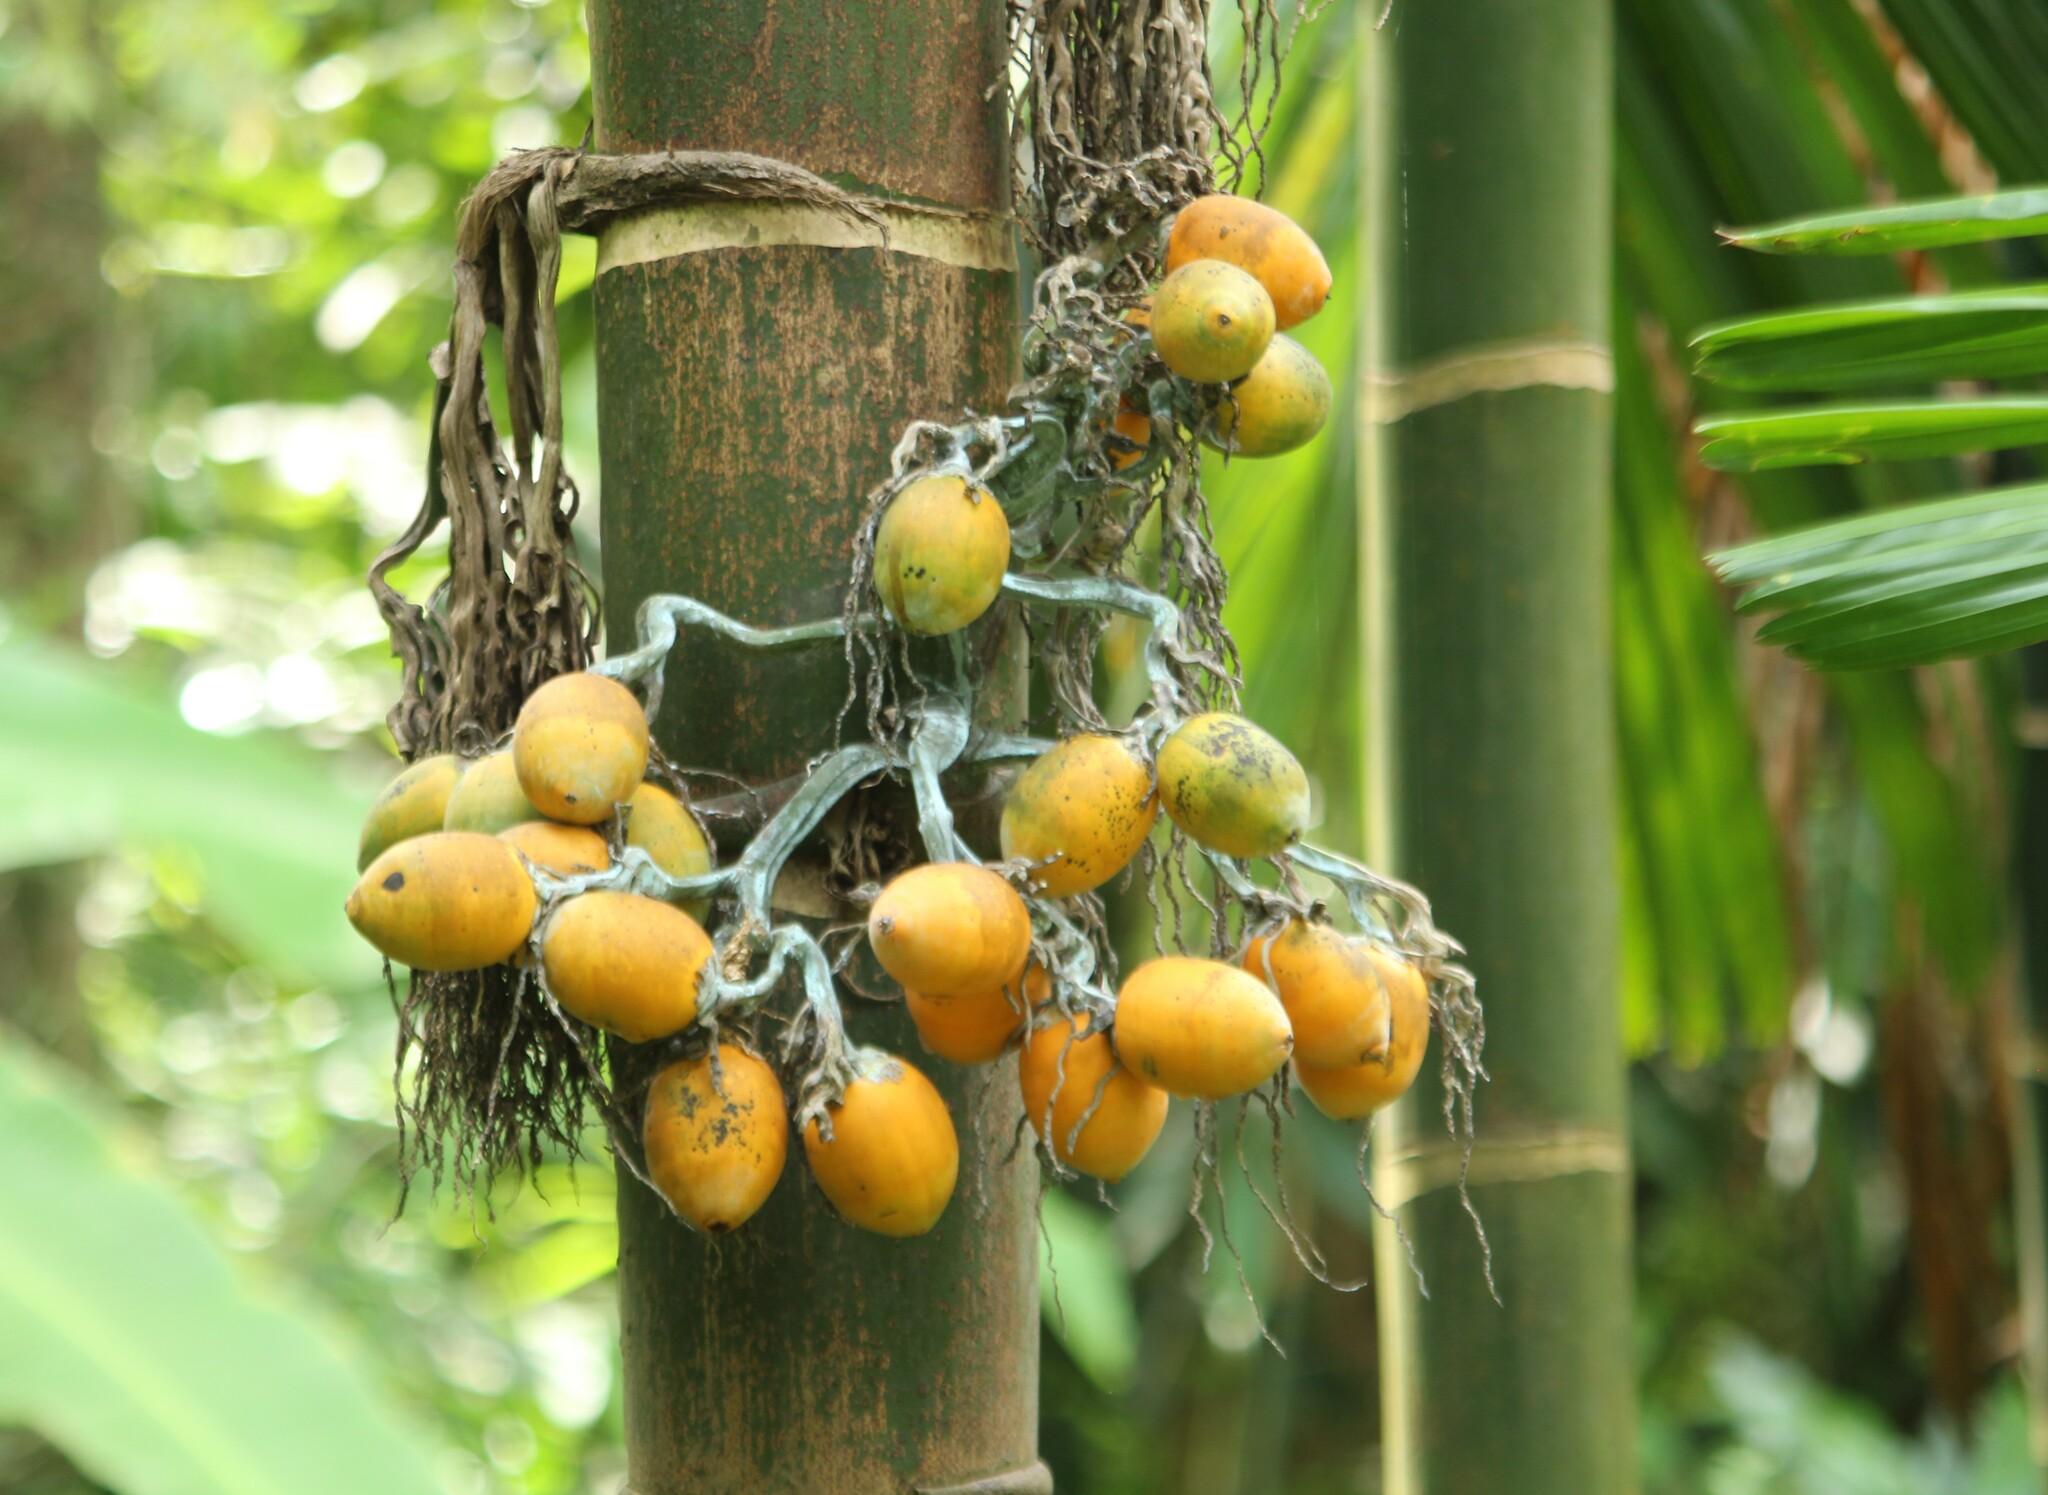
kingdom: Plantae
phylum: Tracheophyta
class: Liliopsida
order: Arecales
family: Arecaceae
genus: Areca
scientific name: Areca catechu
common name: Indian-nut
